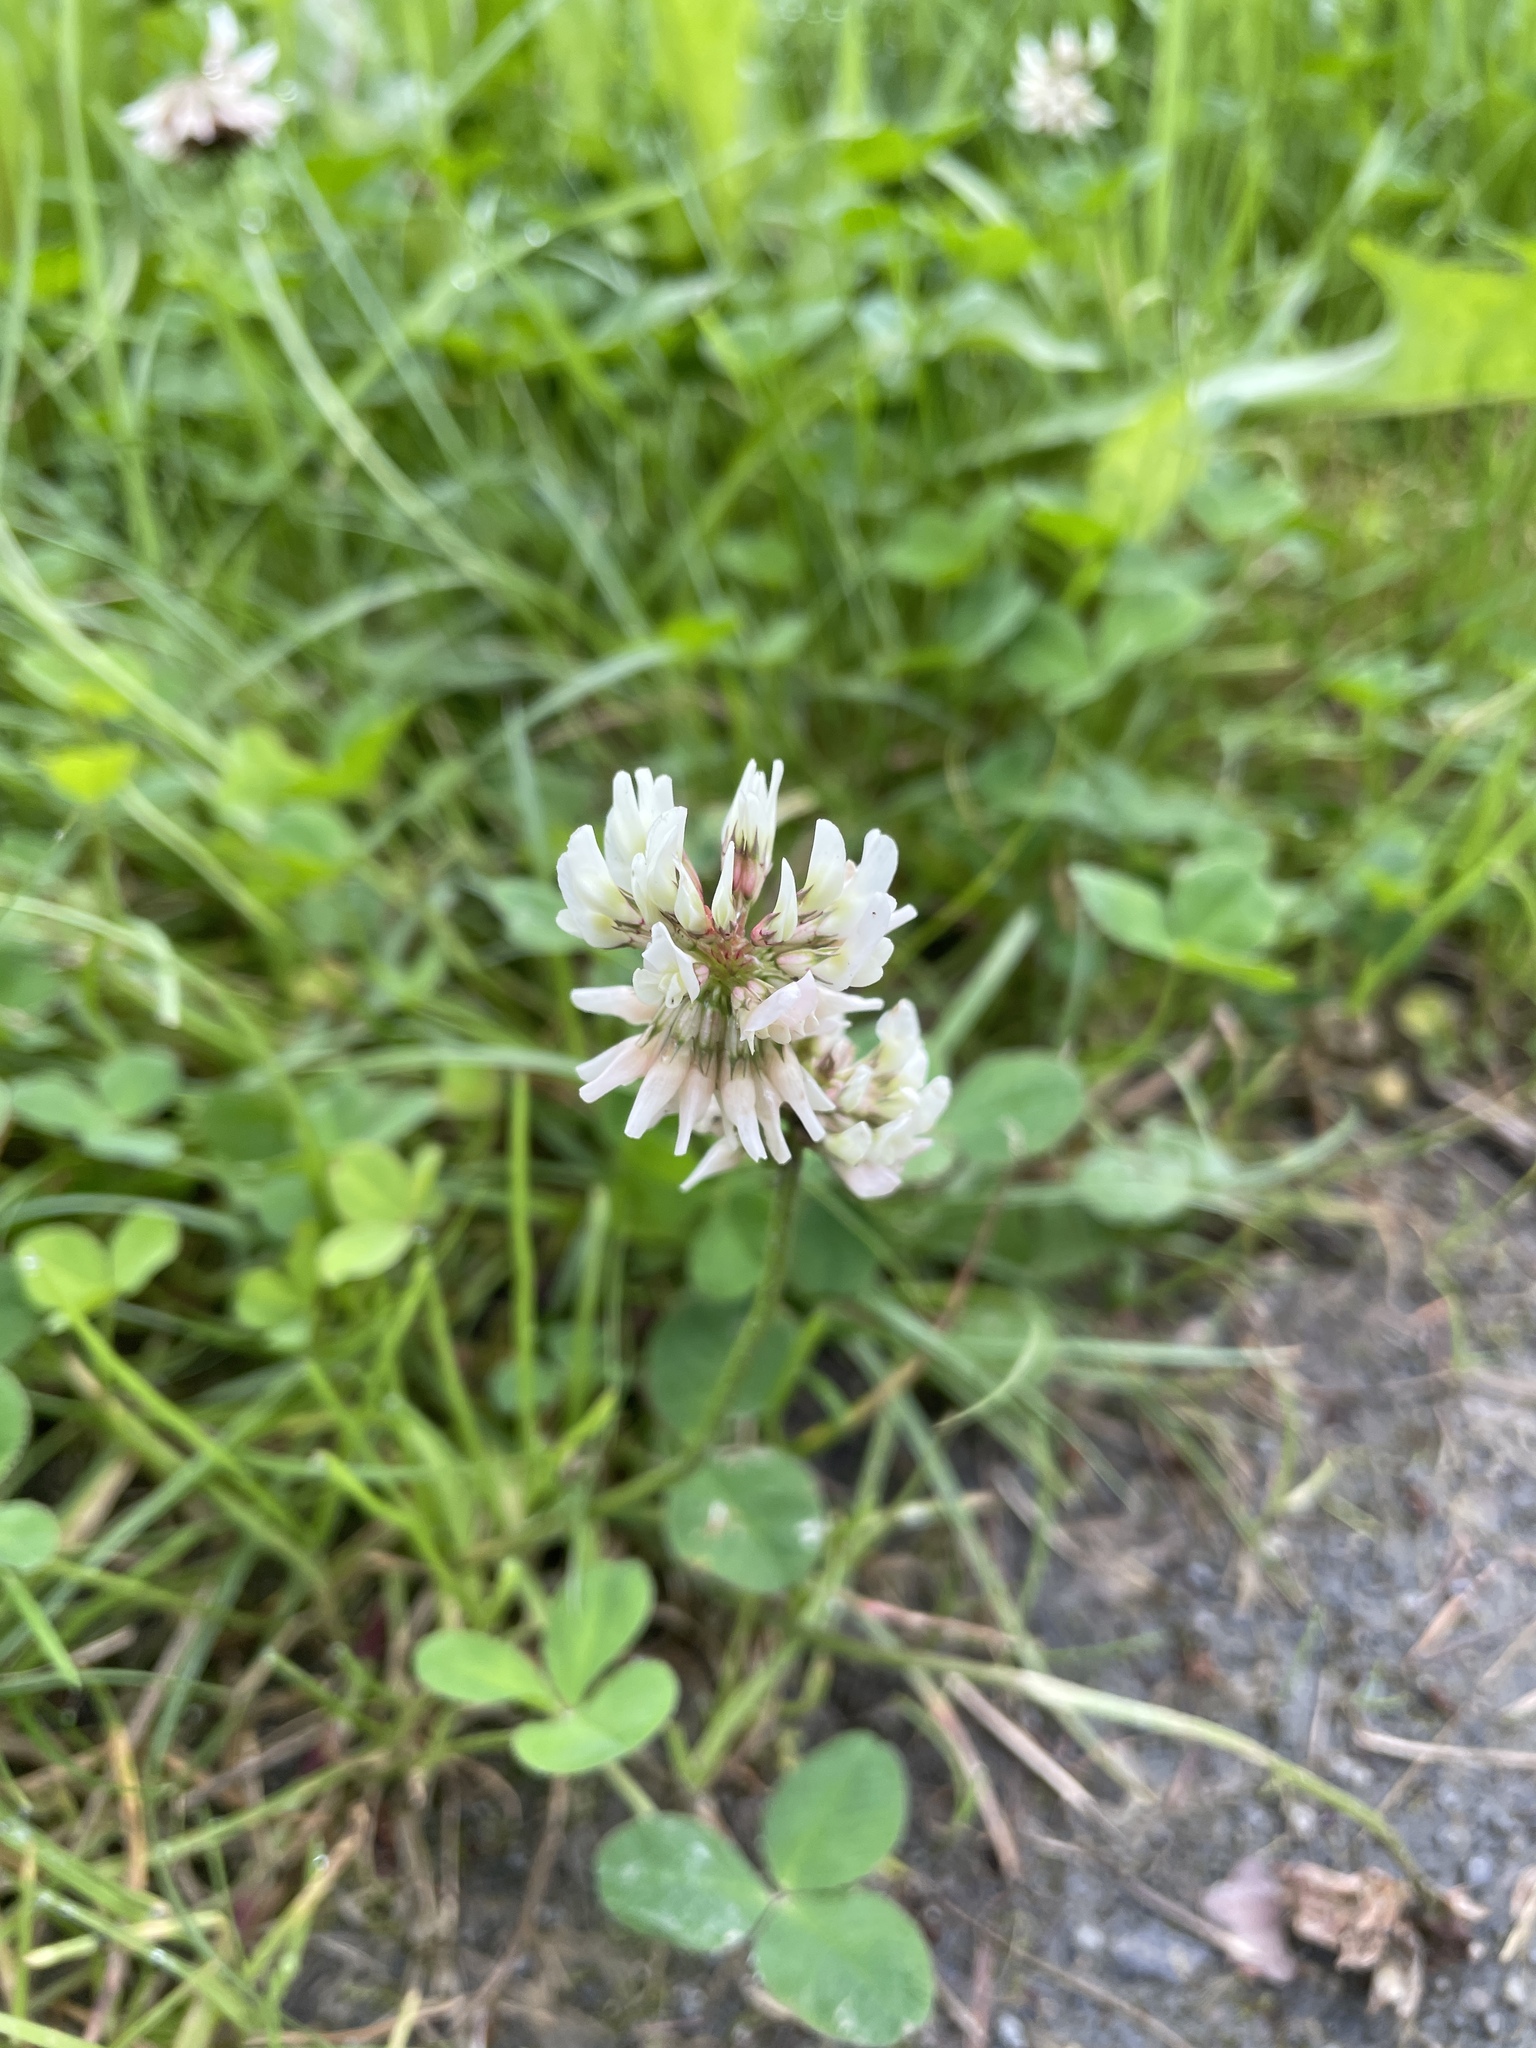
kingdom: Plantae
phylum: Tracheophyta
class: Magnoliopsida
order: Fabales
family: Fabaceae
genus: Trifolium
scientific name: Trifolium repens
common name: White clover
